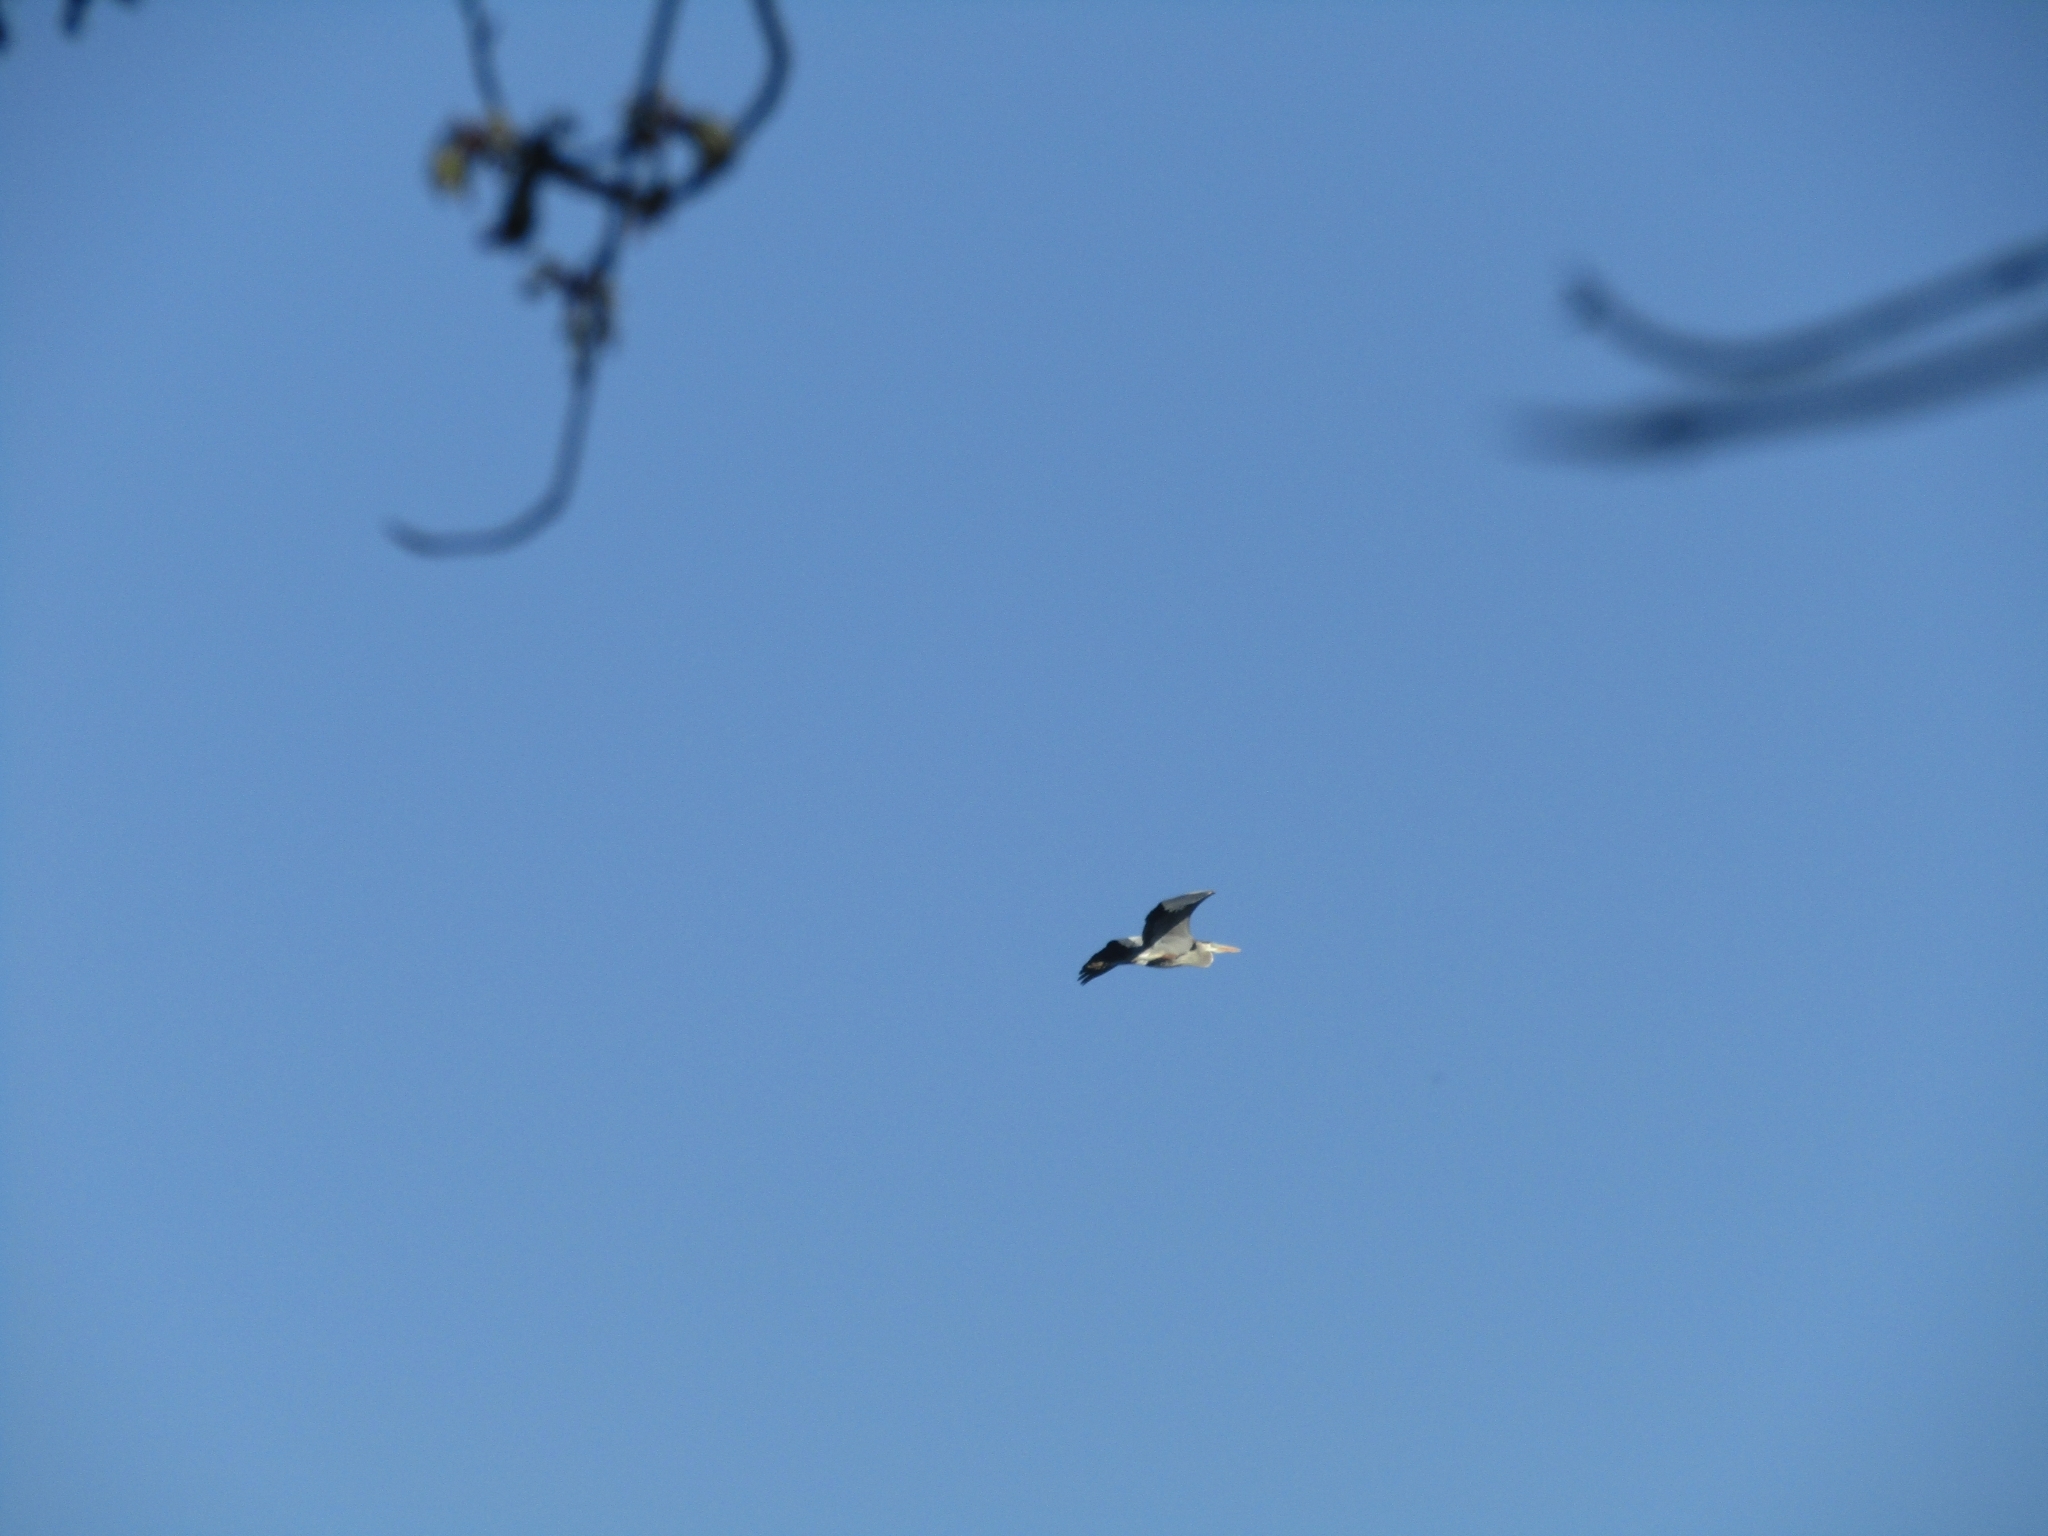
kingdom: Animalia
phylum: Chordata
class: Aves
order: Pelecaniformes
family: Ardeidae
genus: Ardea
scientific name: Ardea herodias
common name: Great blue heron
